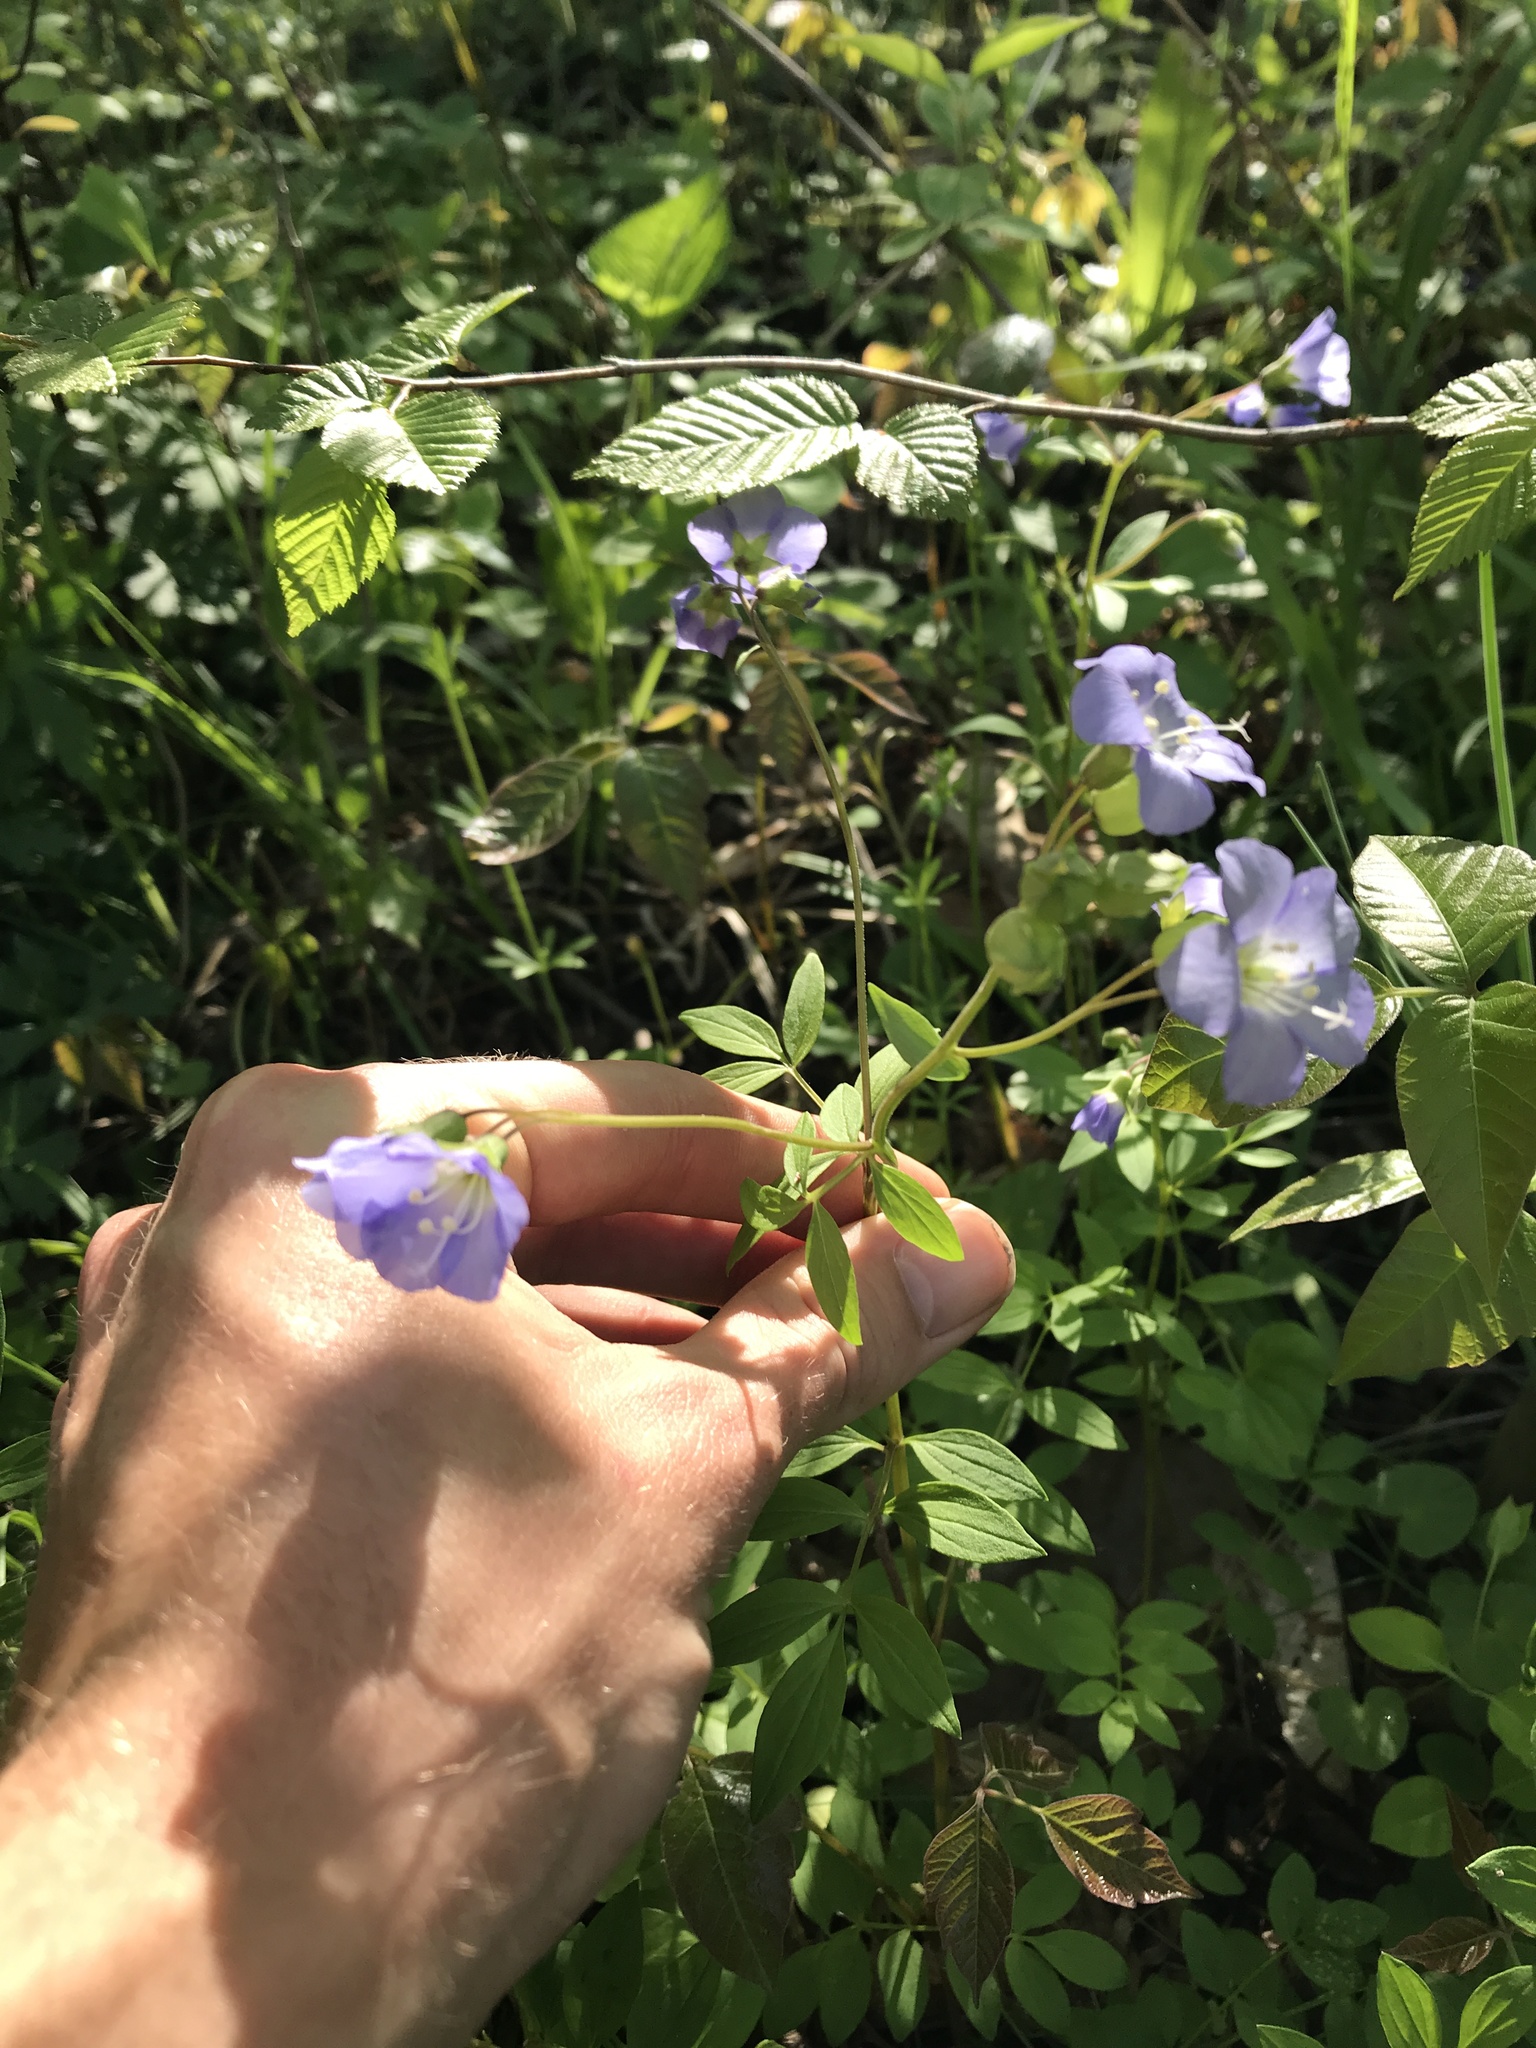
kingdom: Plantae
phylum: Tracheophyta
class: Magnoliopsida
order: Ericales
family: Polemoniaceae
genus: Polemonium
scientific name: Polemonium reptans
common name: Creeping jacob's-ladder
